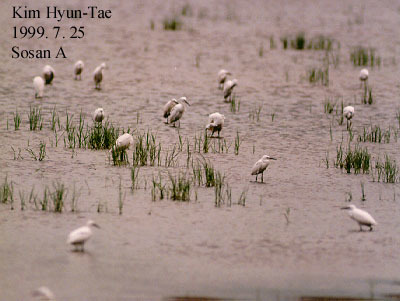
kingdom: Animalia
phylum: Chordata
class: Aves
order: Pelecaniformes
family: Ardeidae
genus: Egretta
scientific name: Egretta garzetta
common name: Little egret
